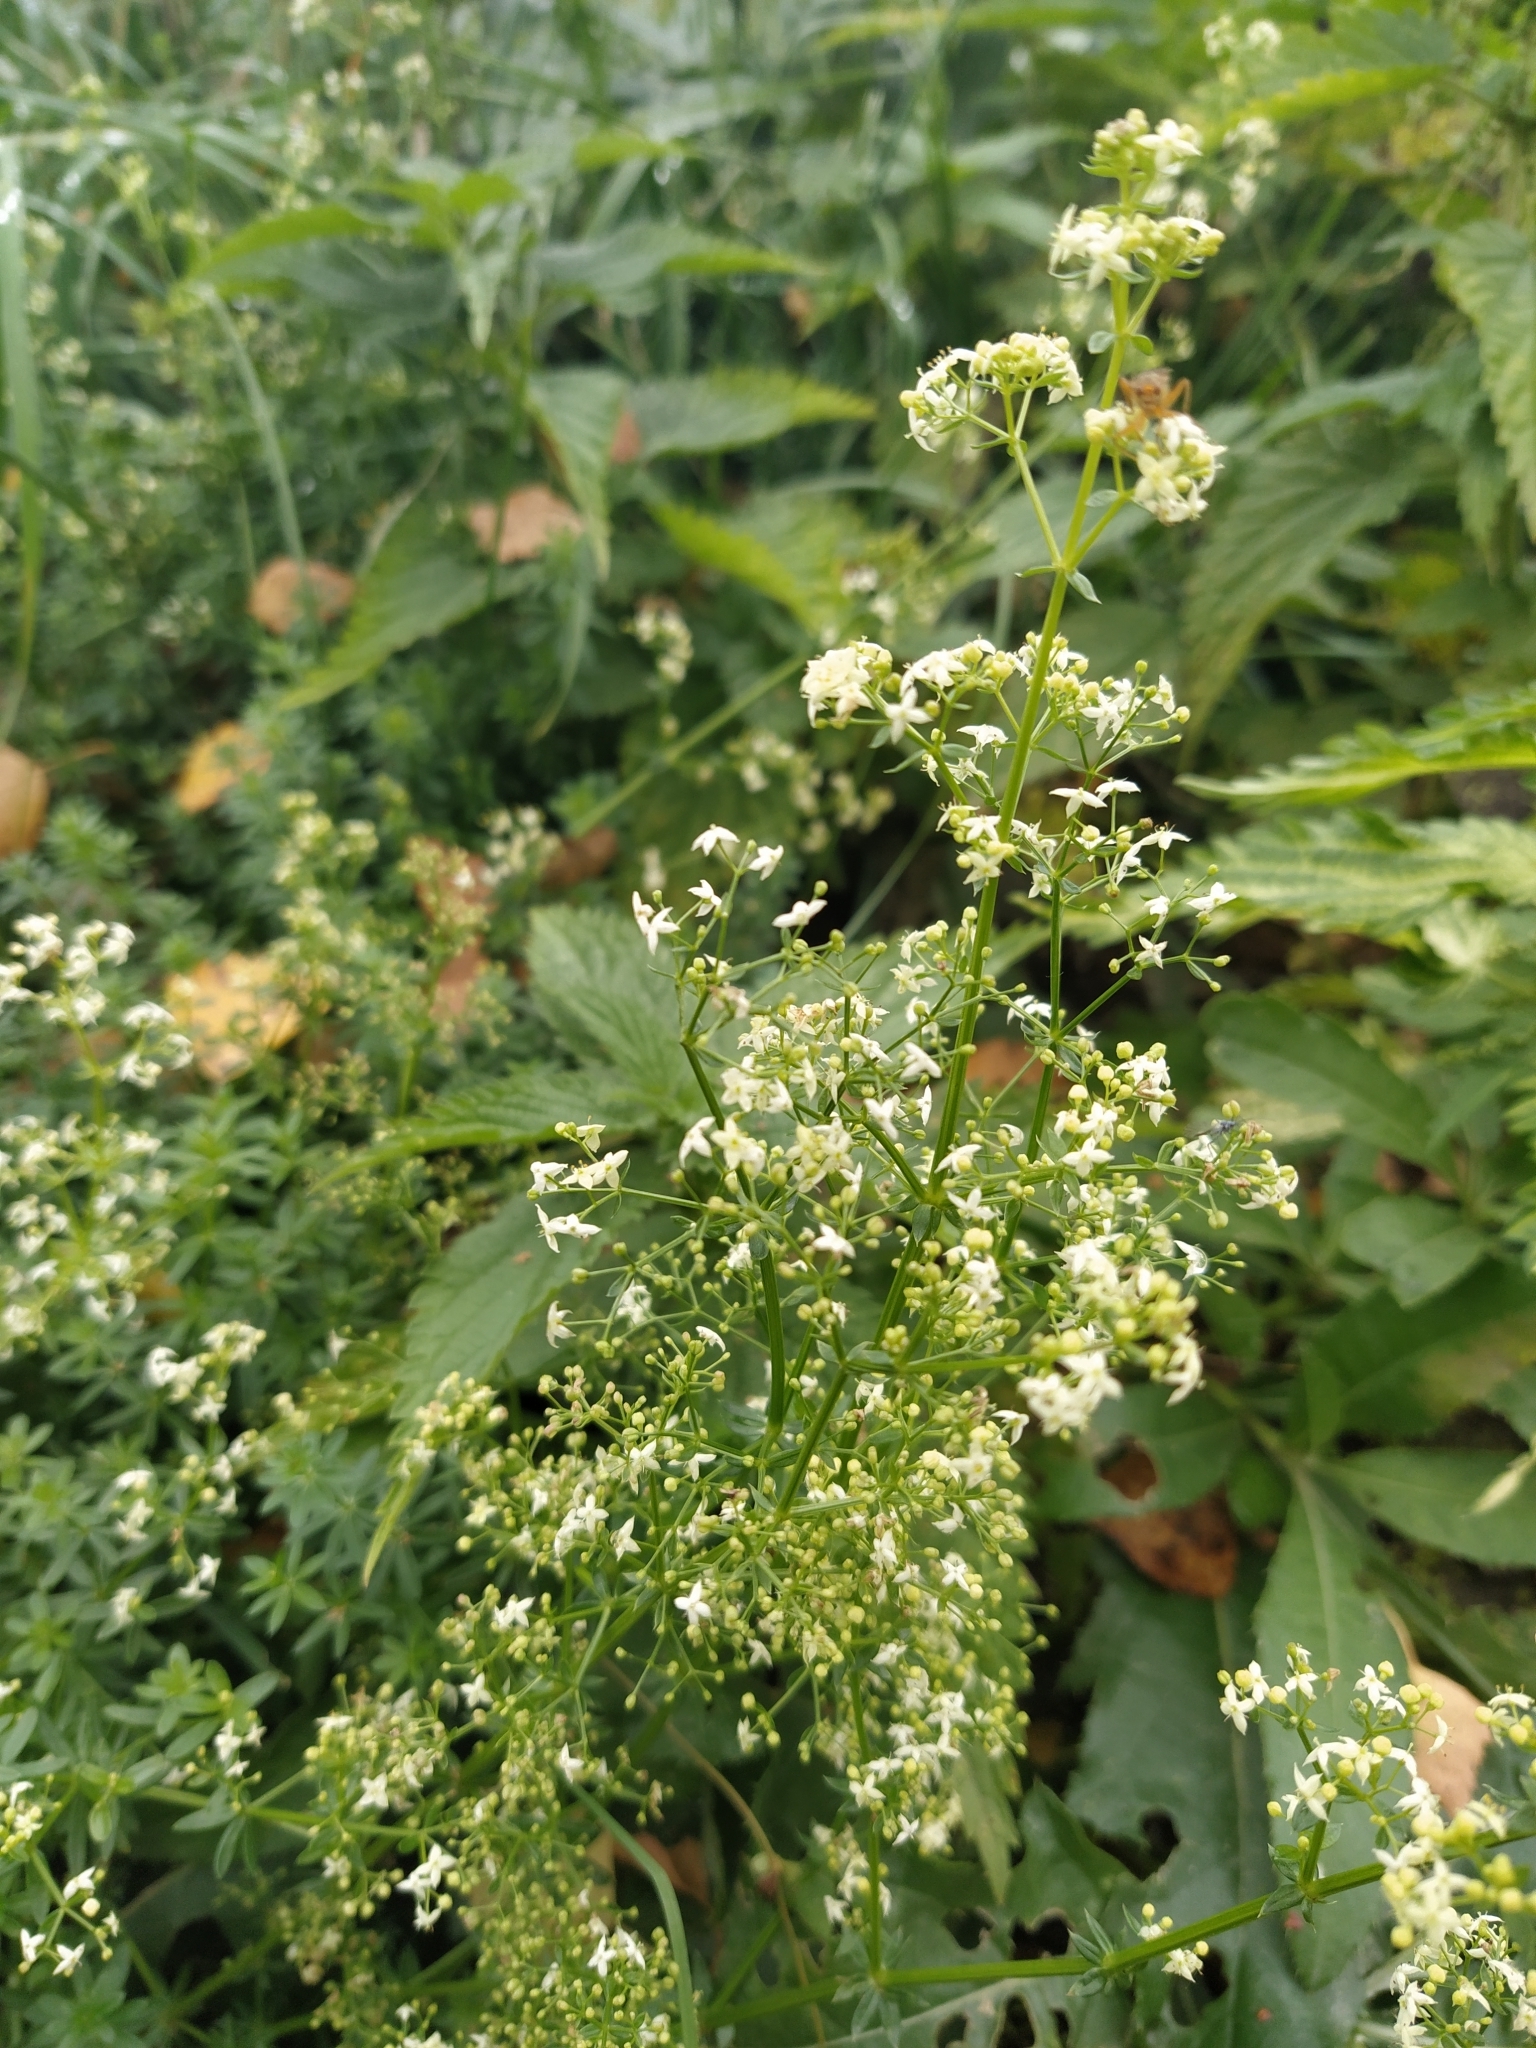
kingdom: Plantae
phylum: Tracheophyta
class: Magnoliopsida
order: Gentianales
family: Rubiaceae
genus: Galium
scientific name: Galium mollugo
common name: Hedge bedstraw
